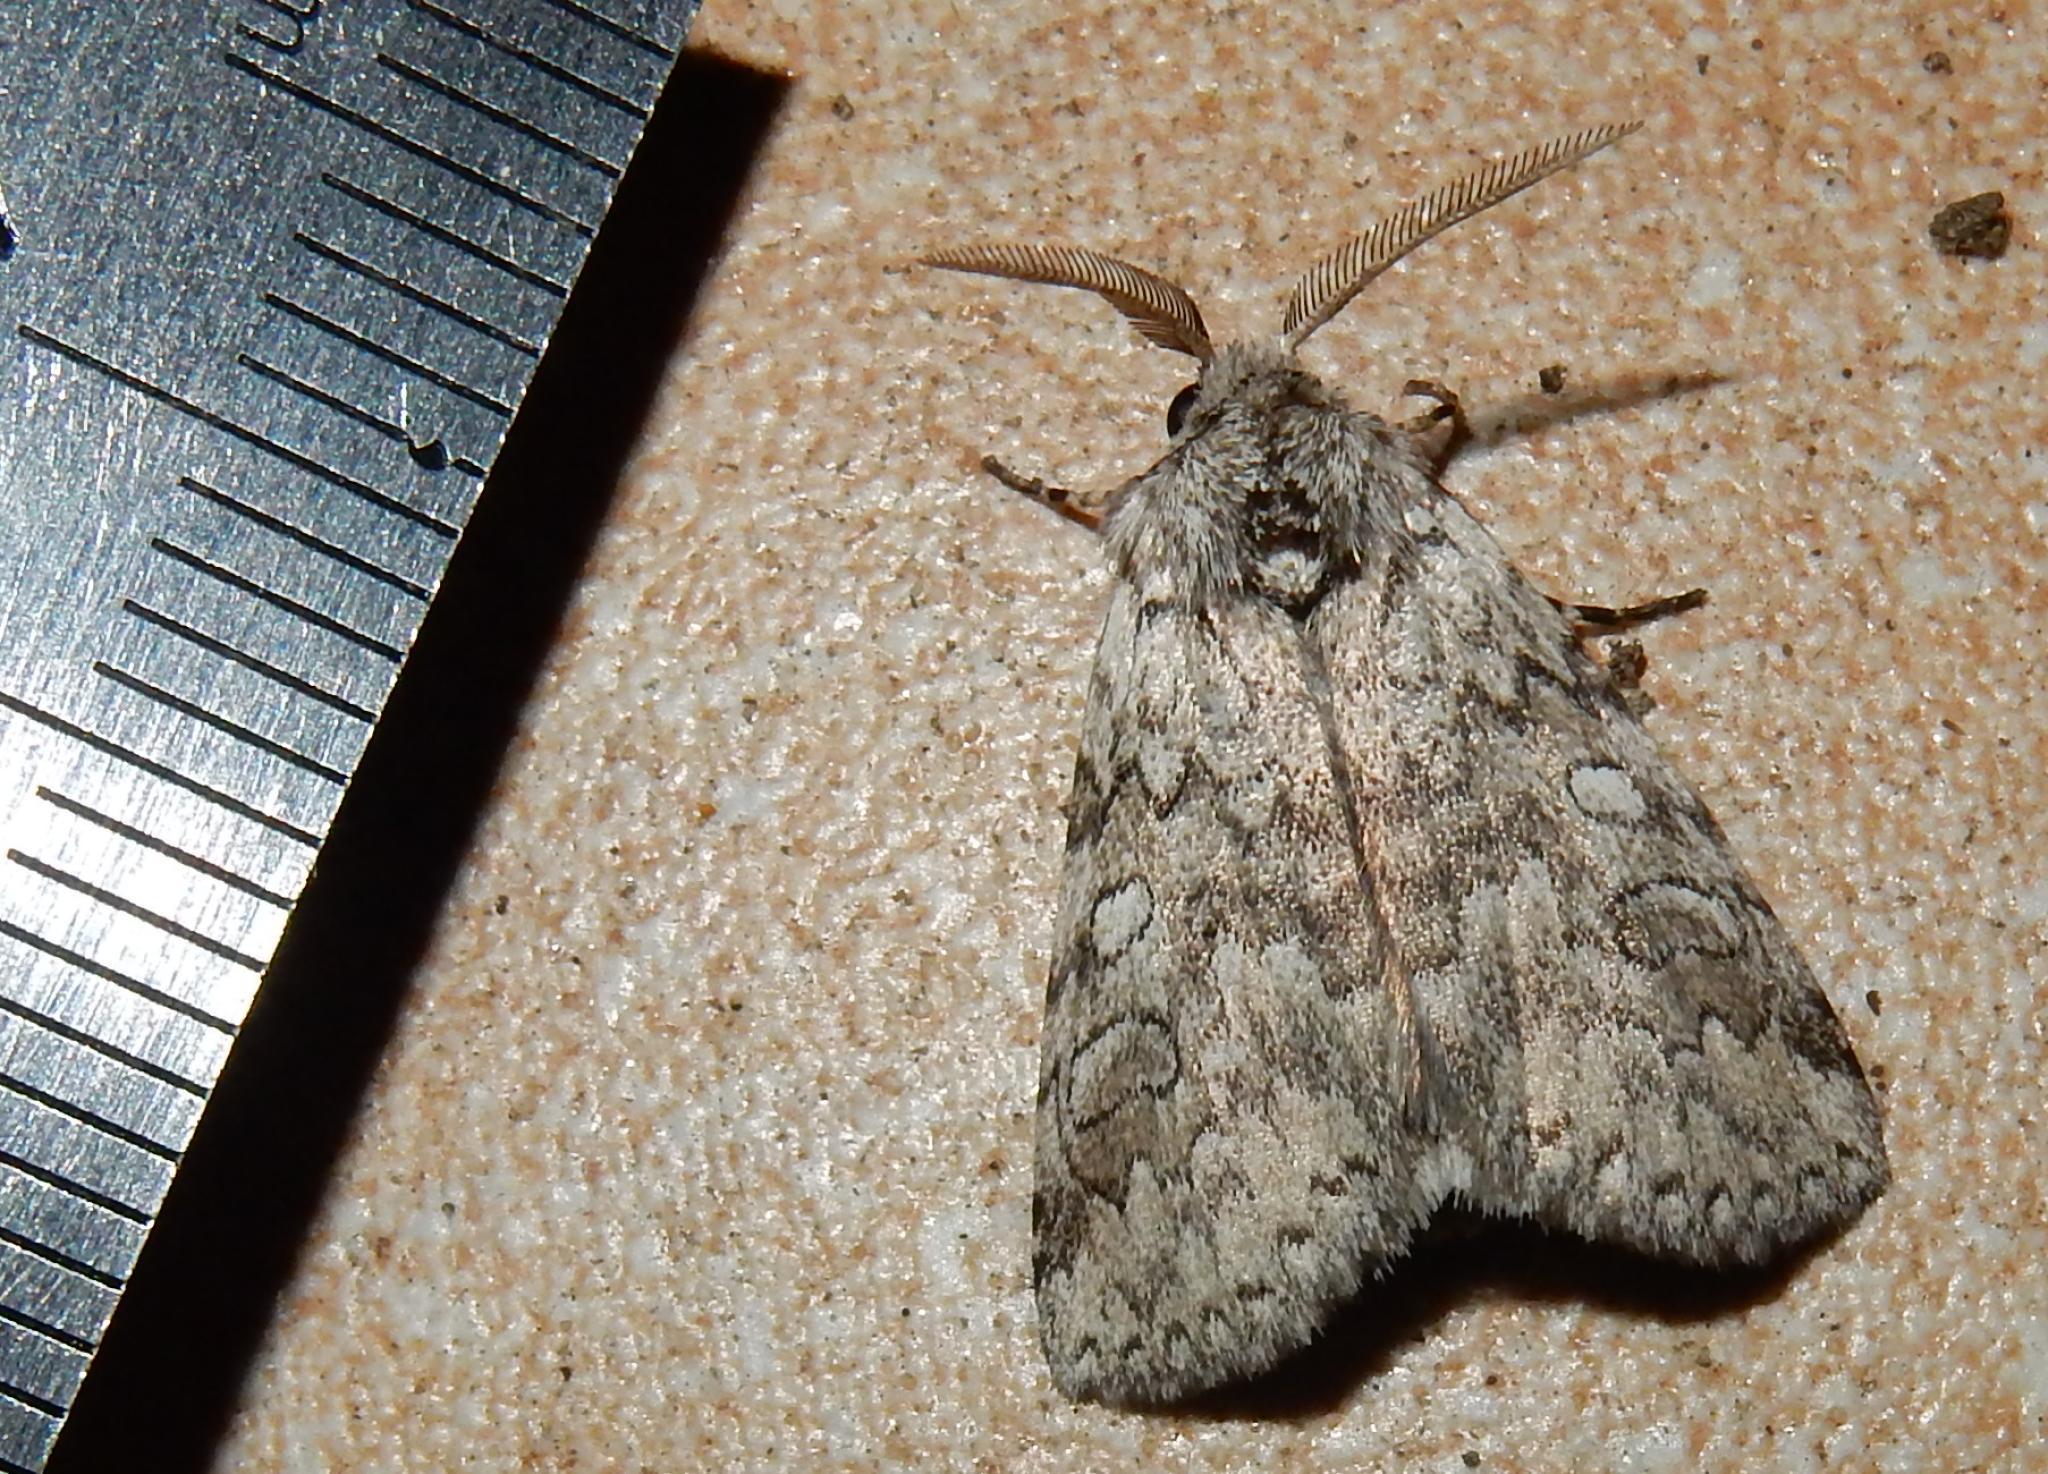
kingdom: Animalia
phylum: Arthropoda
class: Insecta
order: Lepidoptera
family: Erebidae
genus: Dasychira
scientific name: Dasychira Dicranuropsis vilis
